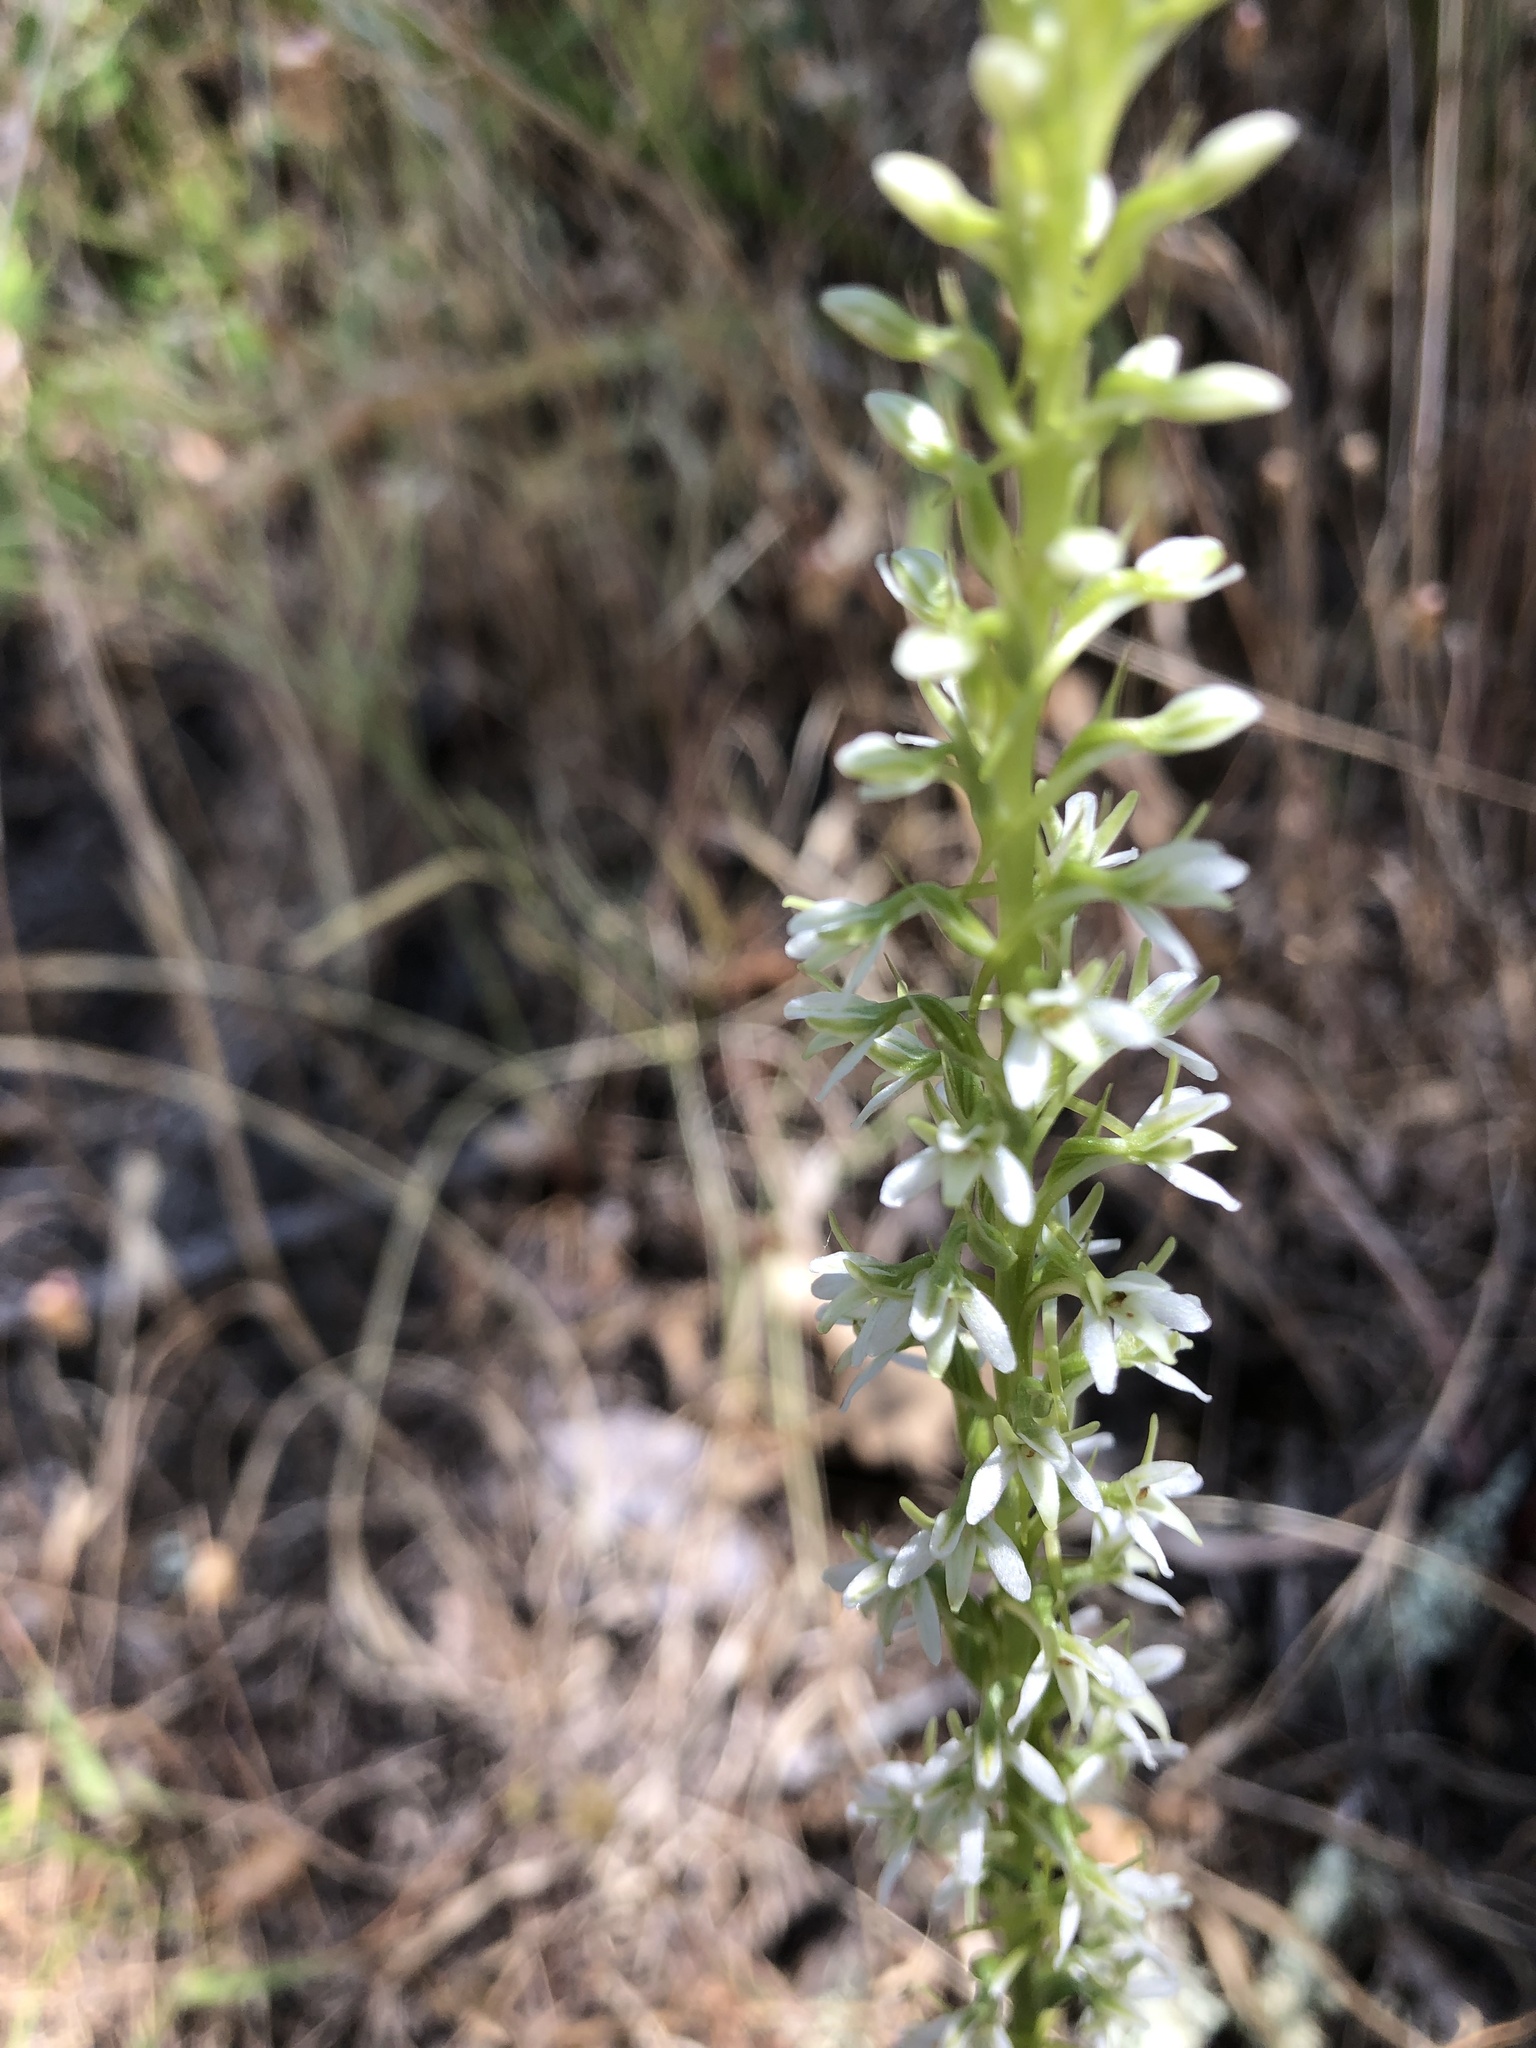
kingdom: Plantae
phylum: Tracheophyta
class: Liliopsida
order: Asparagales
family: Orchidaceae
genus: Platanthera
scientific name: Platanthera elegans
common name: Coast piperia
